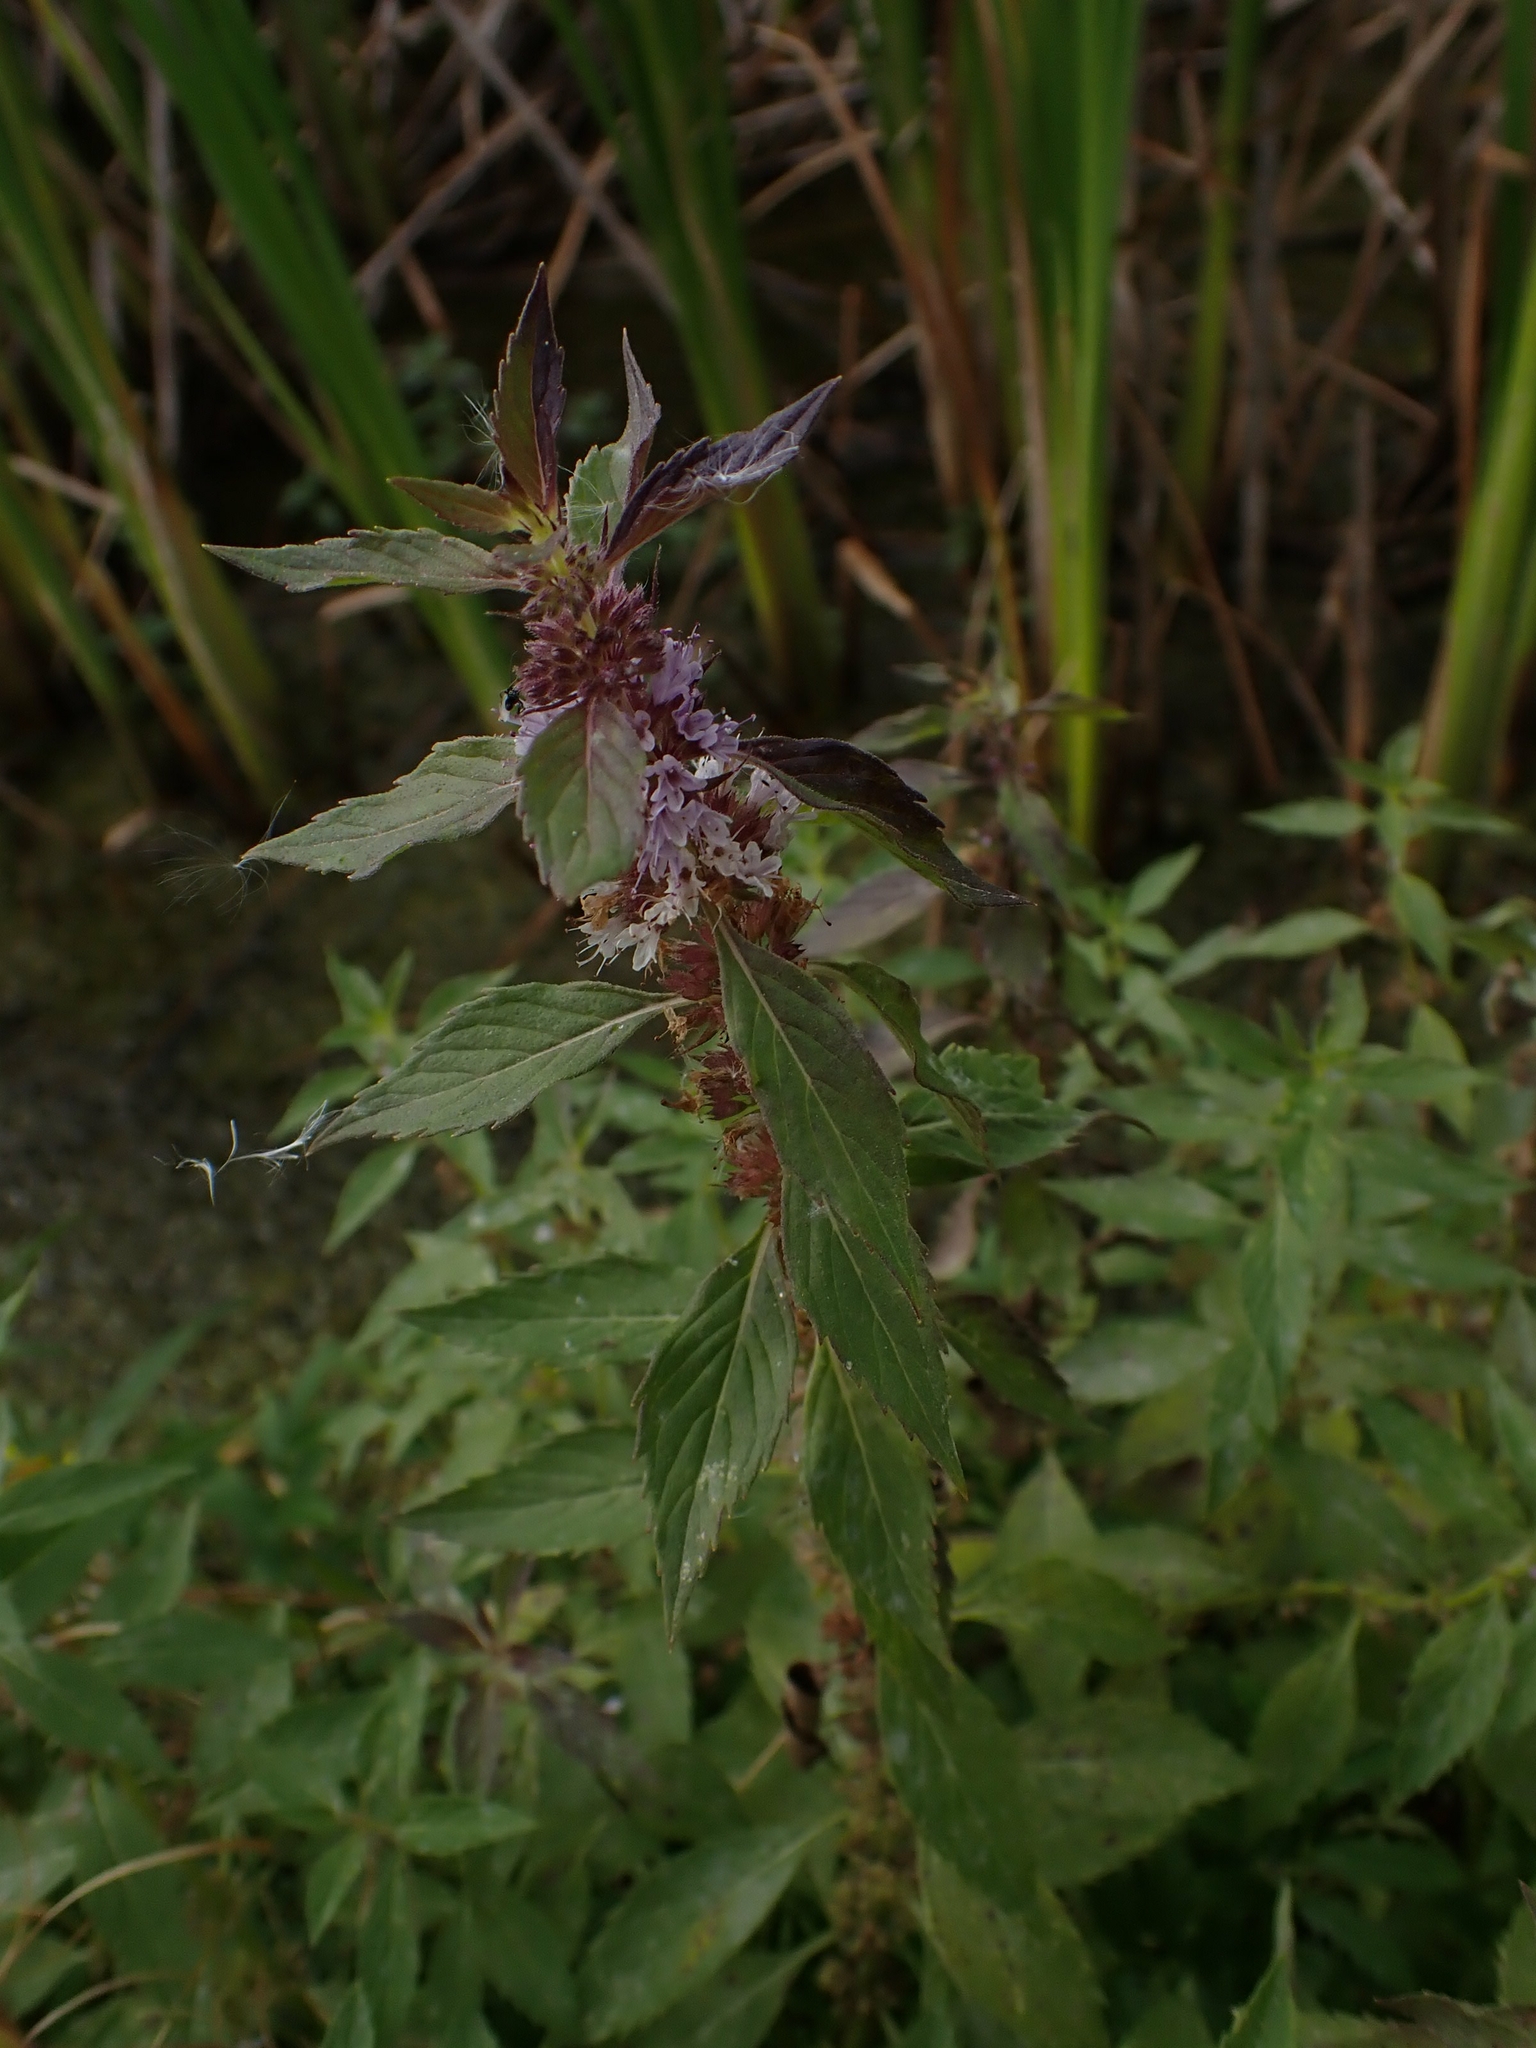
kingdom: Plantae
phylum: Tracheophyta
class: Magnoliopsida
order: Lamiales
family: Lamiaceae
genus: Mentha
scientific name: Mentha canadensis
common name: American corn mint
